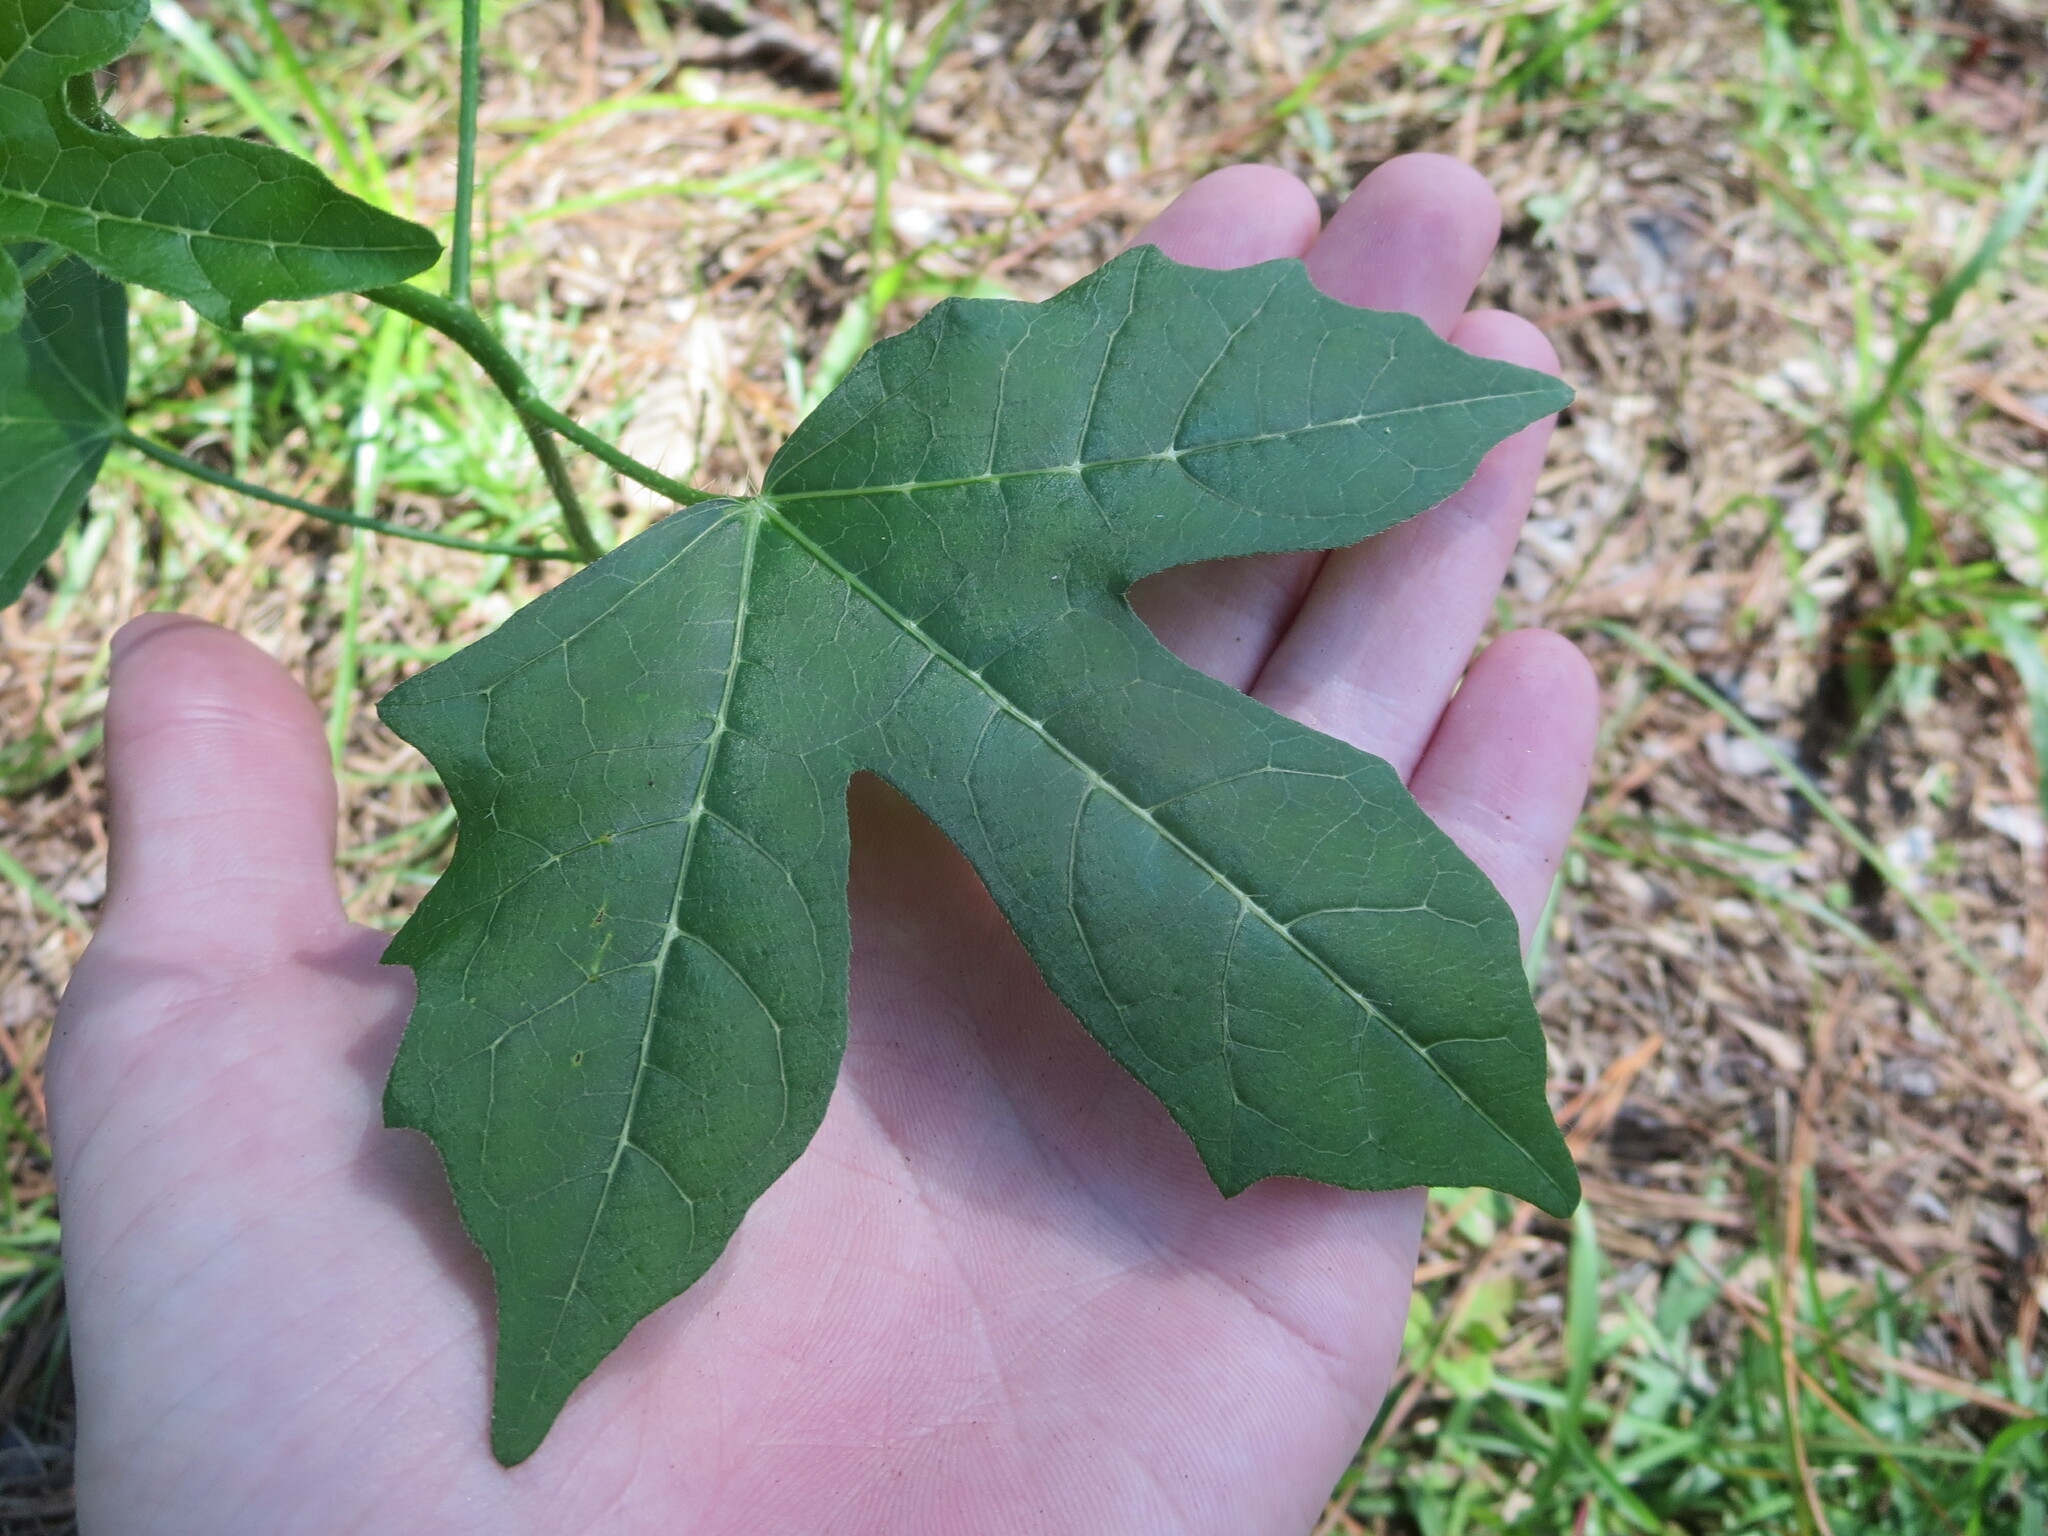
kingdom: Plantae
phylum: Tracheophyta
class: Magnoliopsida
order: Malpighiales
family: Euphorbiaceae
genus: Cnidoscolus
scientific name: Cnidoscolus stimulosus
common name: Bull-nettle
